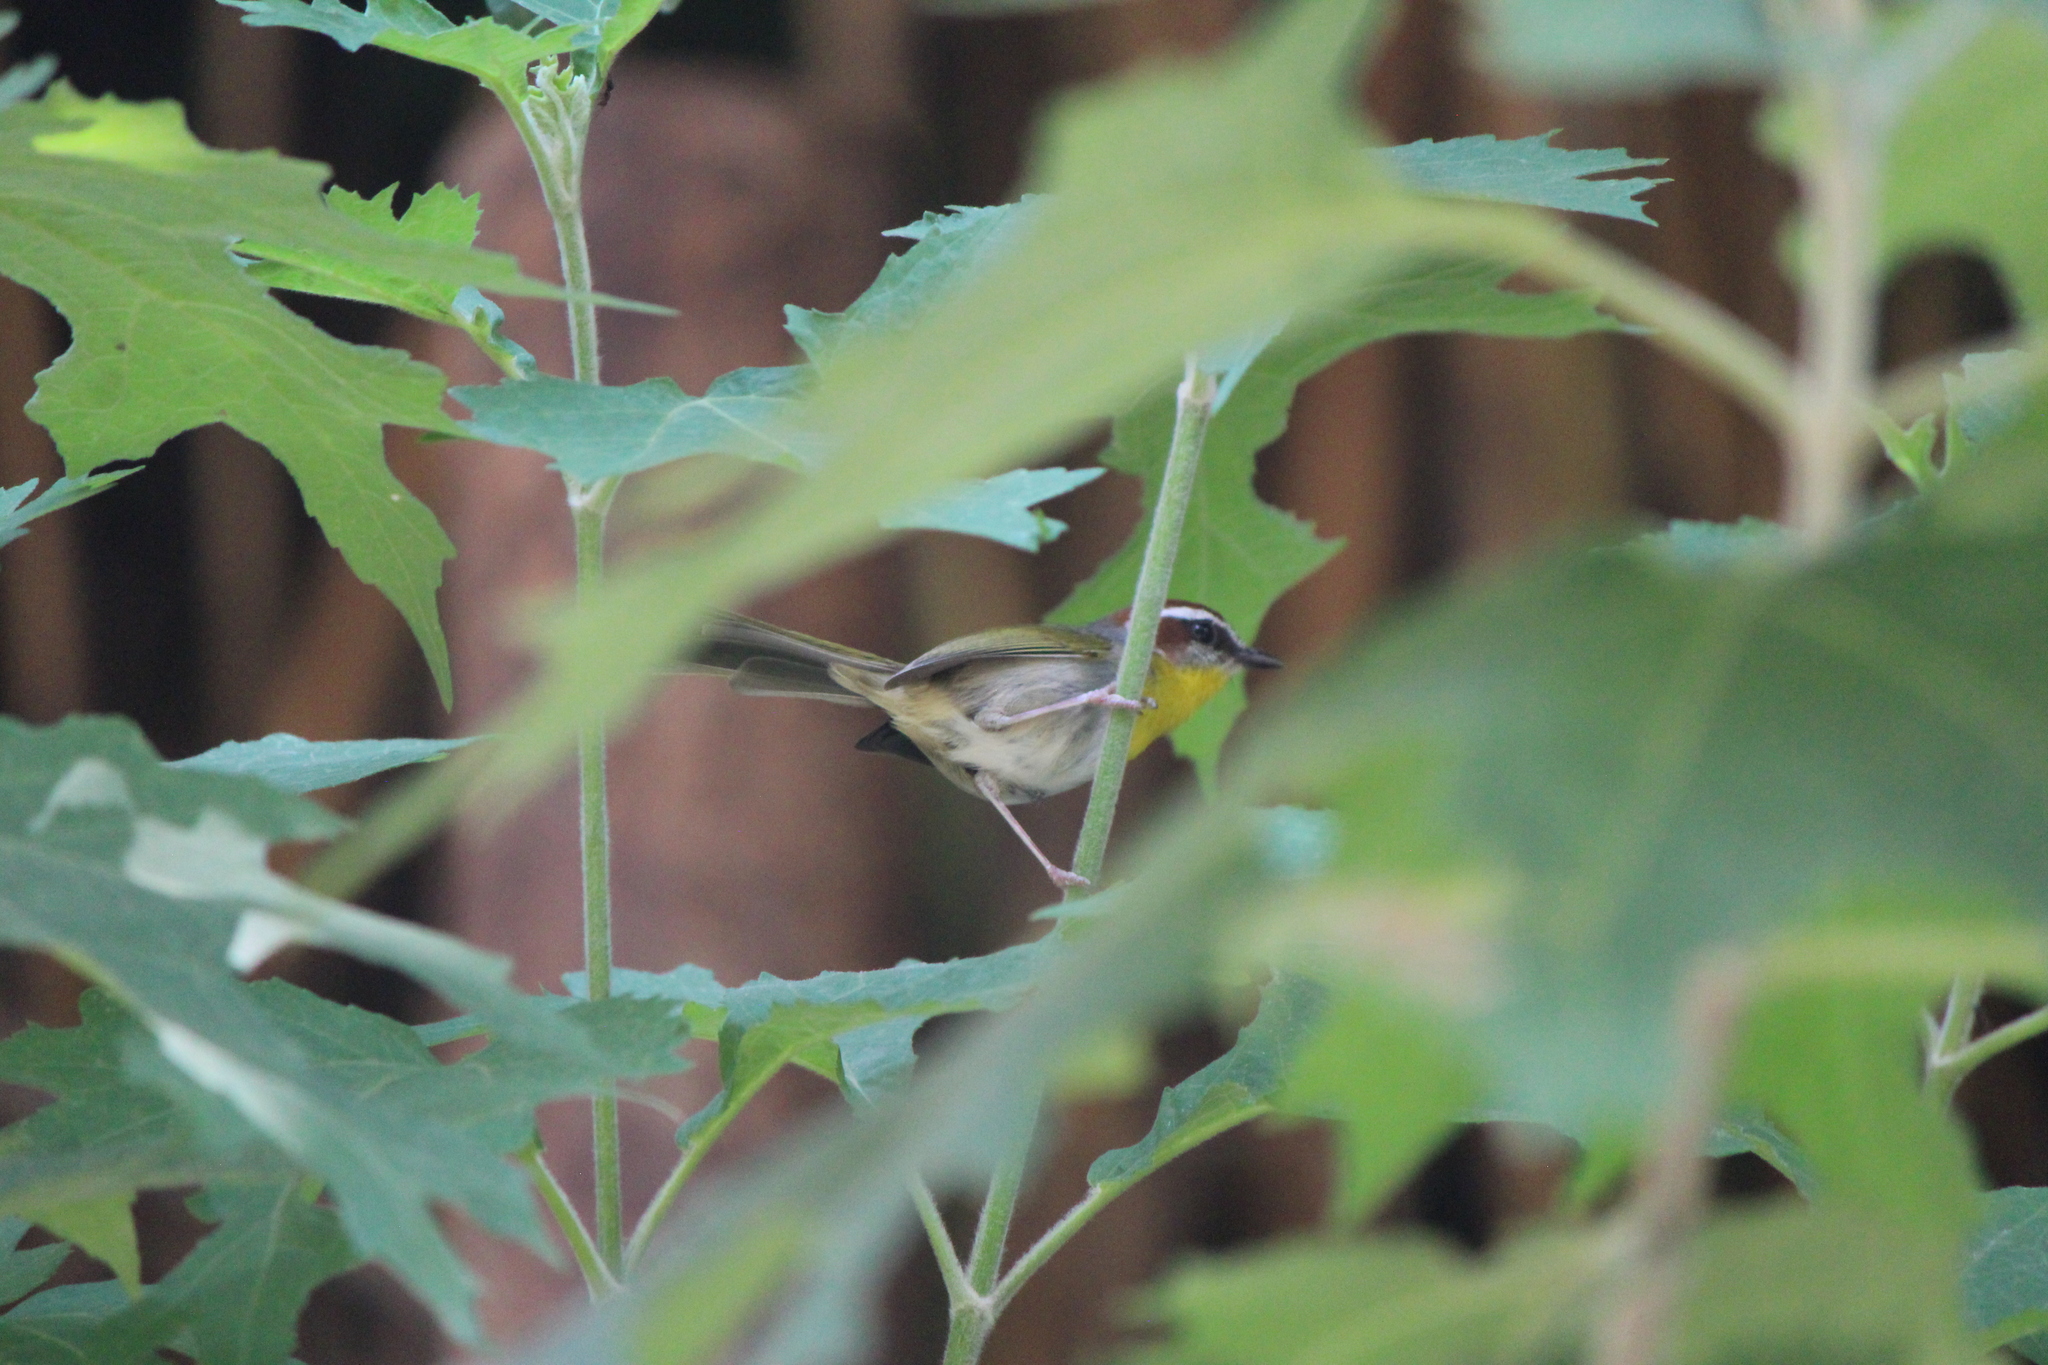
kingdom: Animalia
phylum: Chordata
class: Aves
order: Passeriformes
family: Parulidae
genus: Basileuterus
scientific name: Basileuterus rufifrons
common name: Rufous-capped warbler
